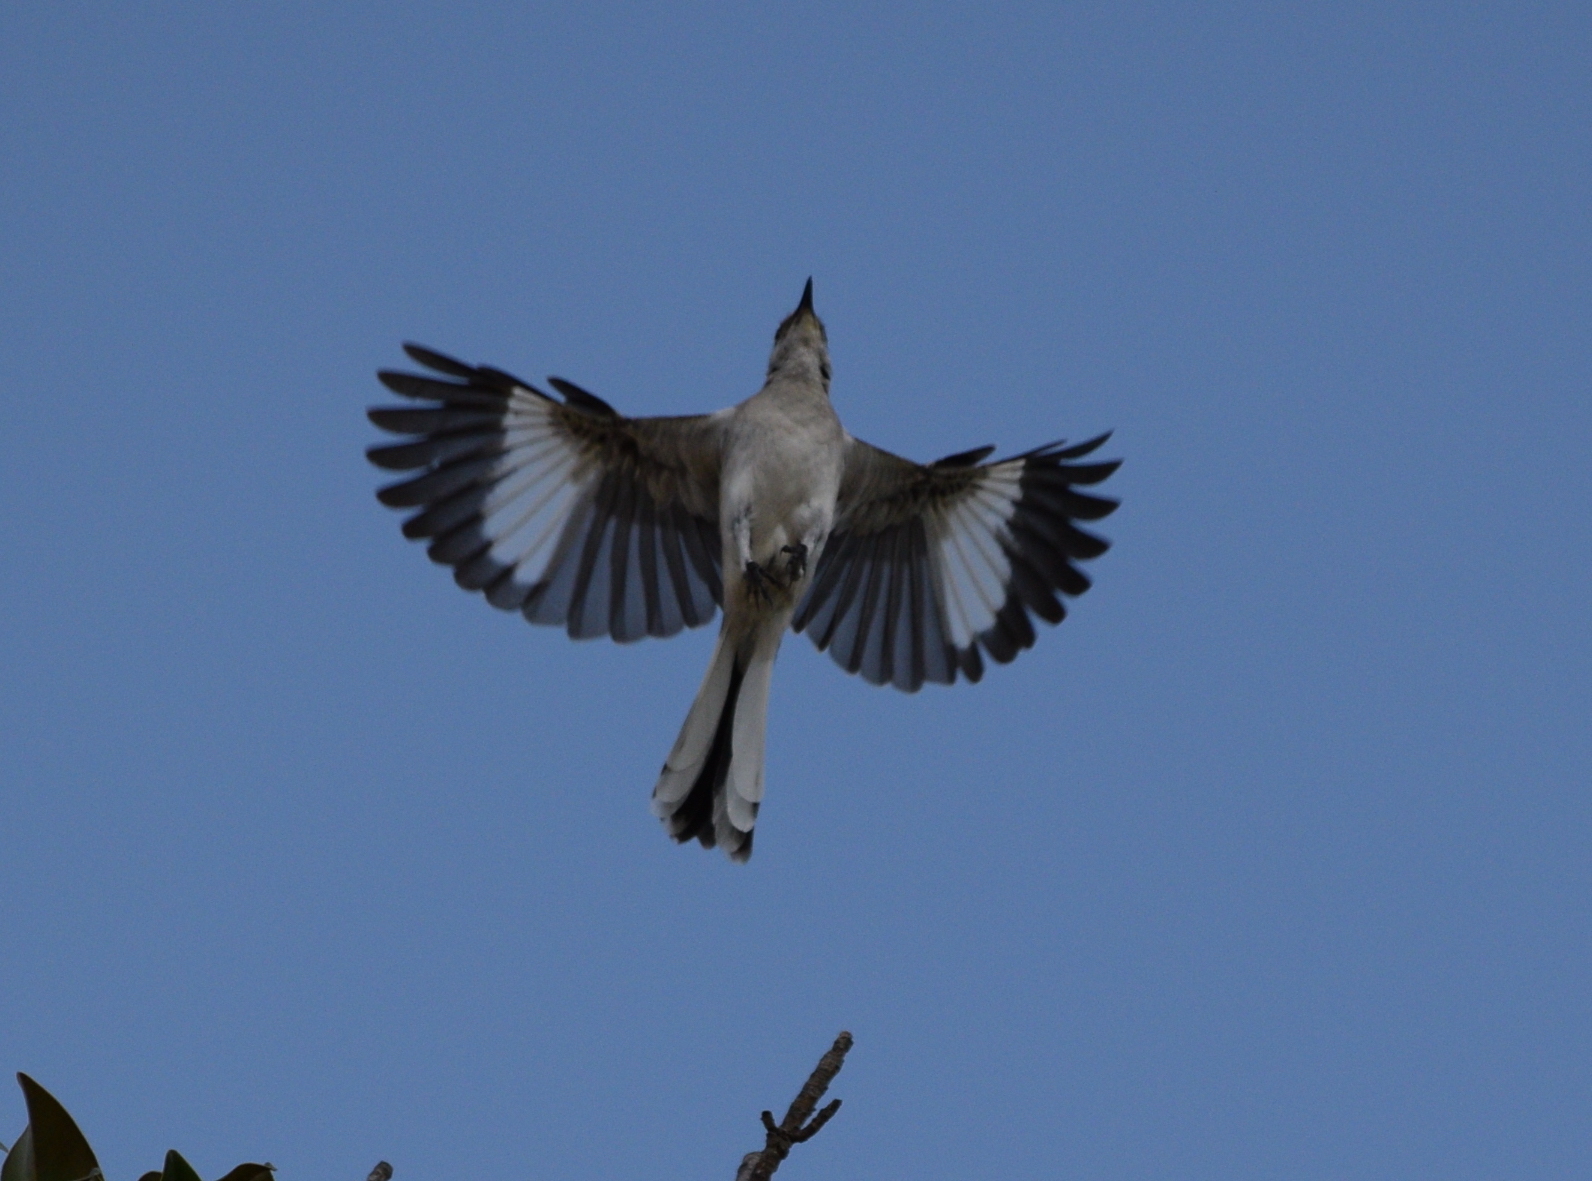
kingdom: Animalia
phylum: Chordata
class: Aves
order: Passeriformes
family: Mimidae
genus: Mimus
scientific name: Mimus polyglottos
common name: Northern mockingbird
